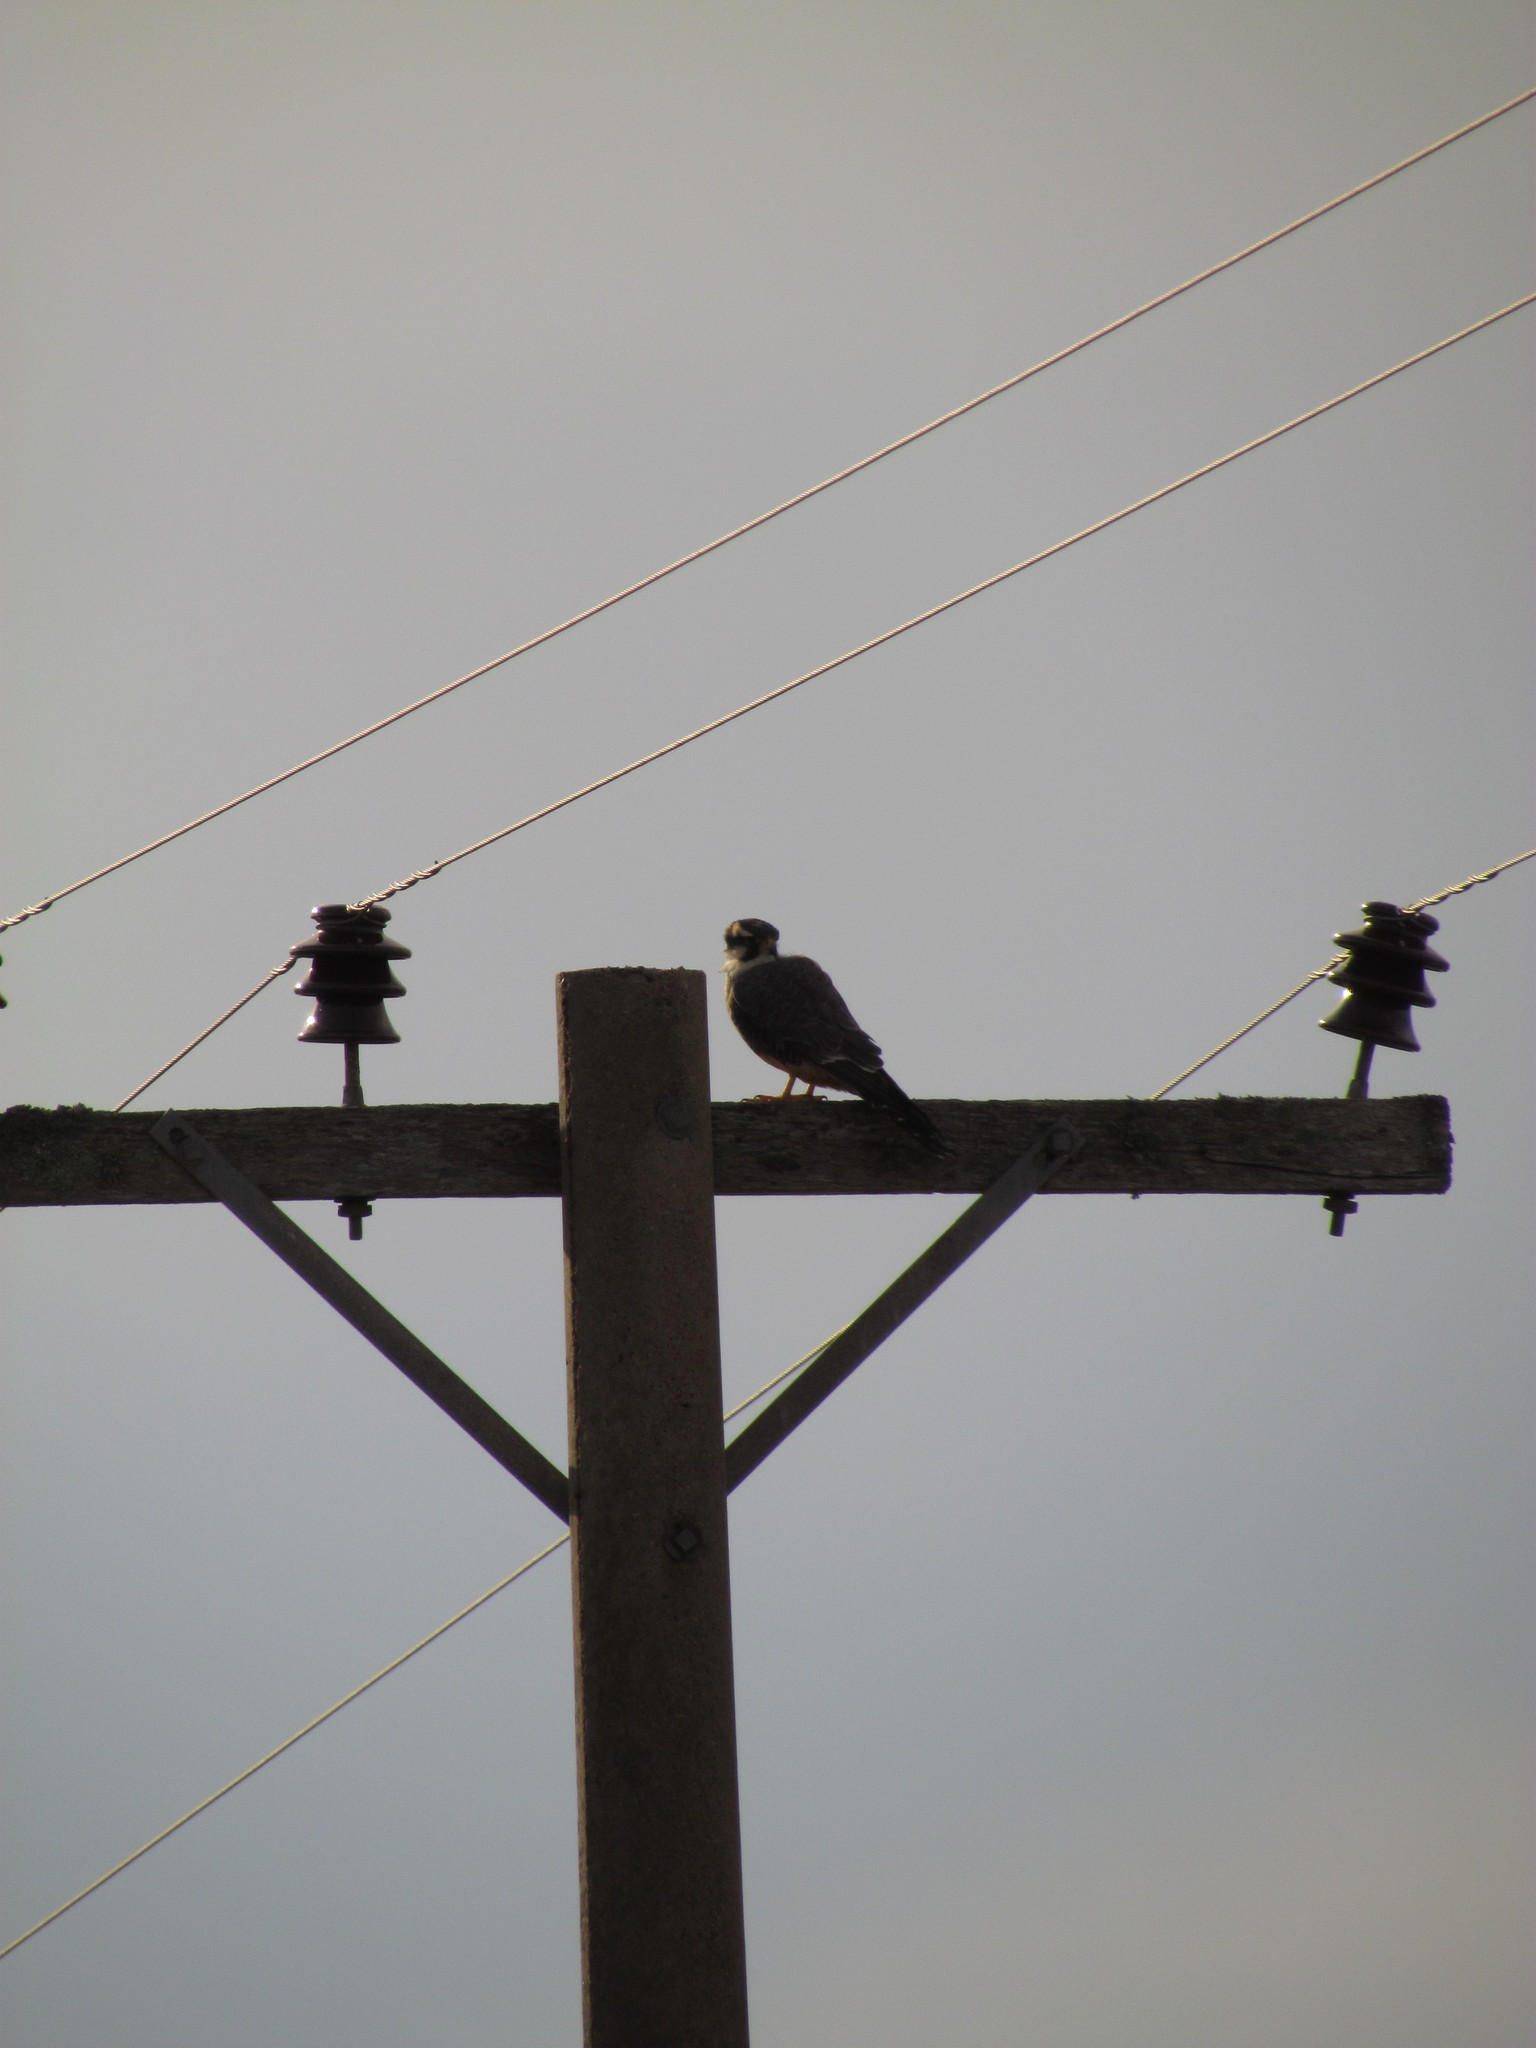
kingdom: Animalia
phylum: Chordata
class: Aves
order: Falconiformes
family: Falconidae
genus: Falco
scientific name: Falco femoralis
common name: Aplomado falcon
